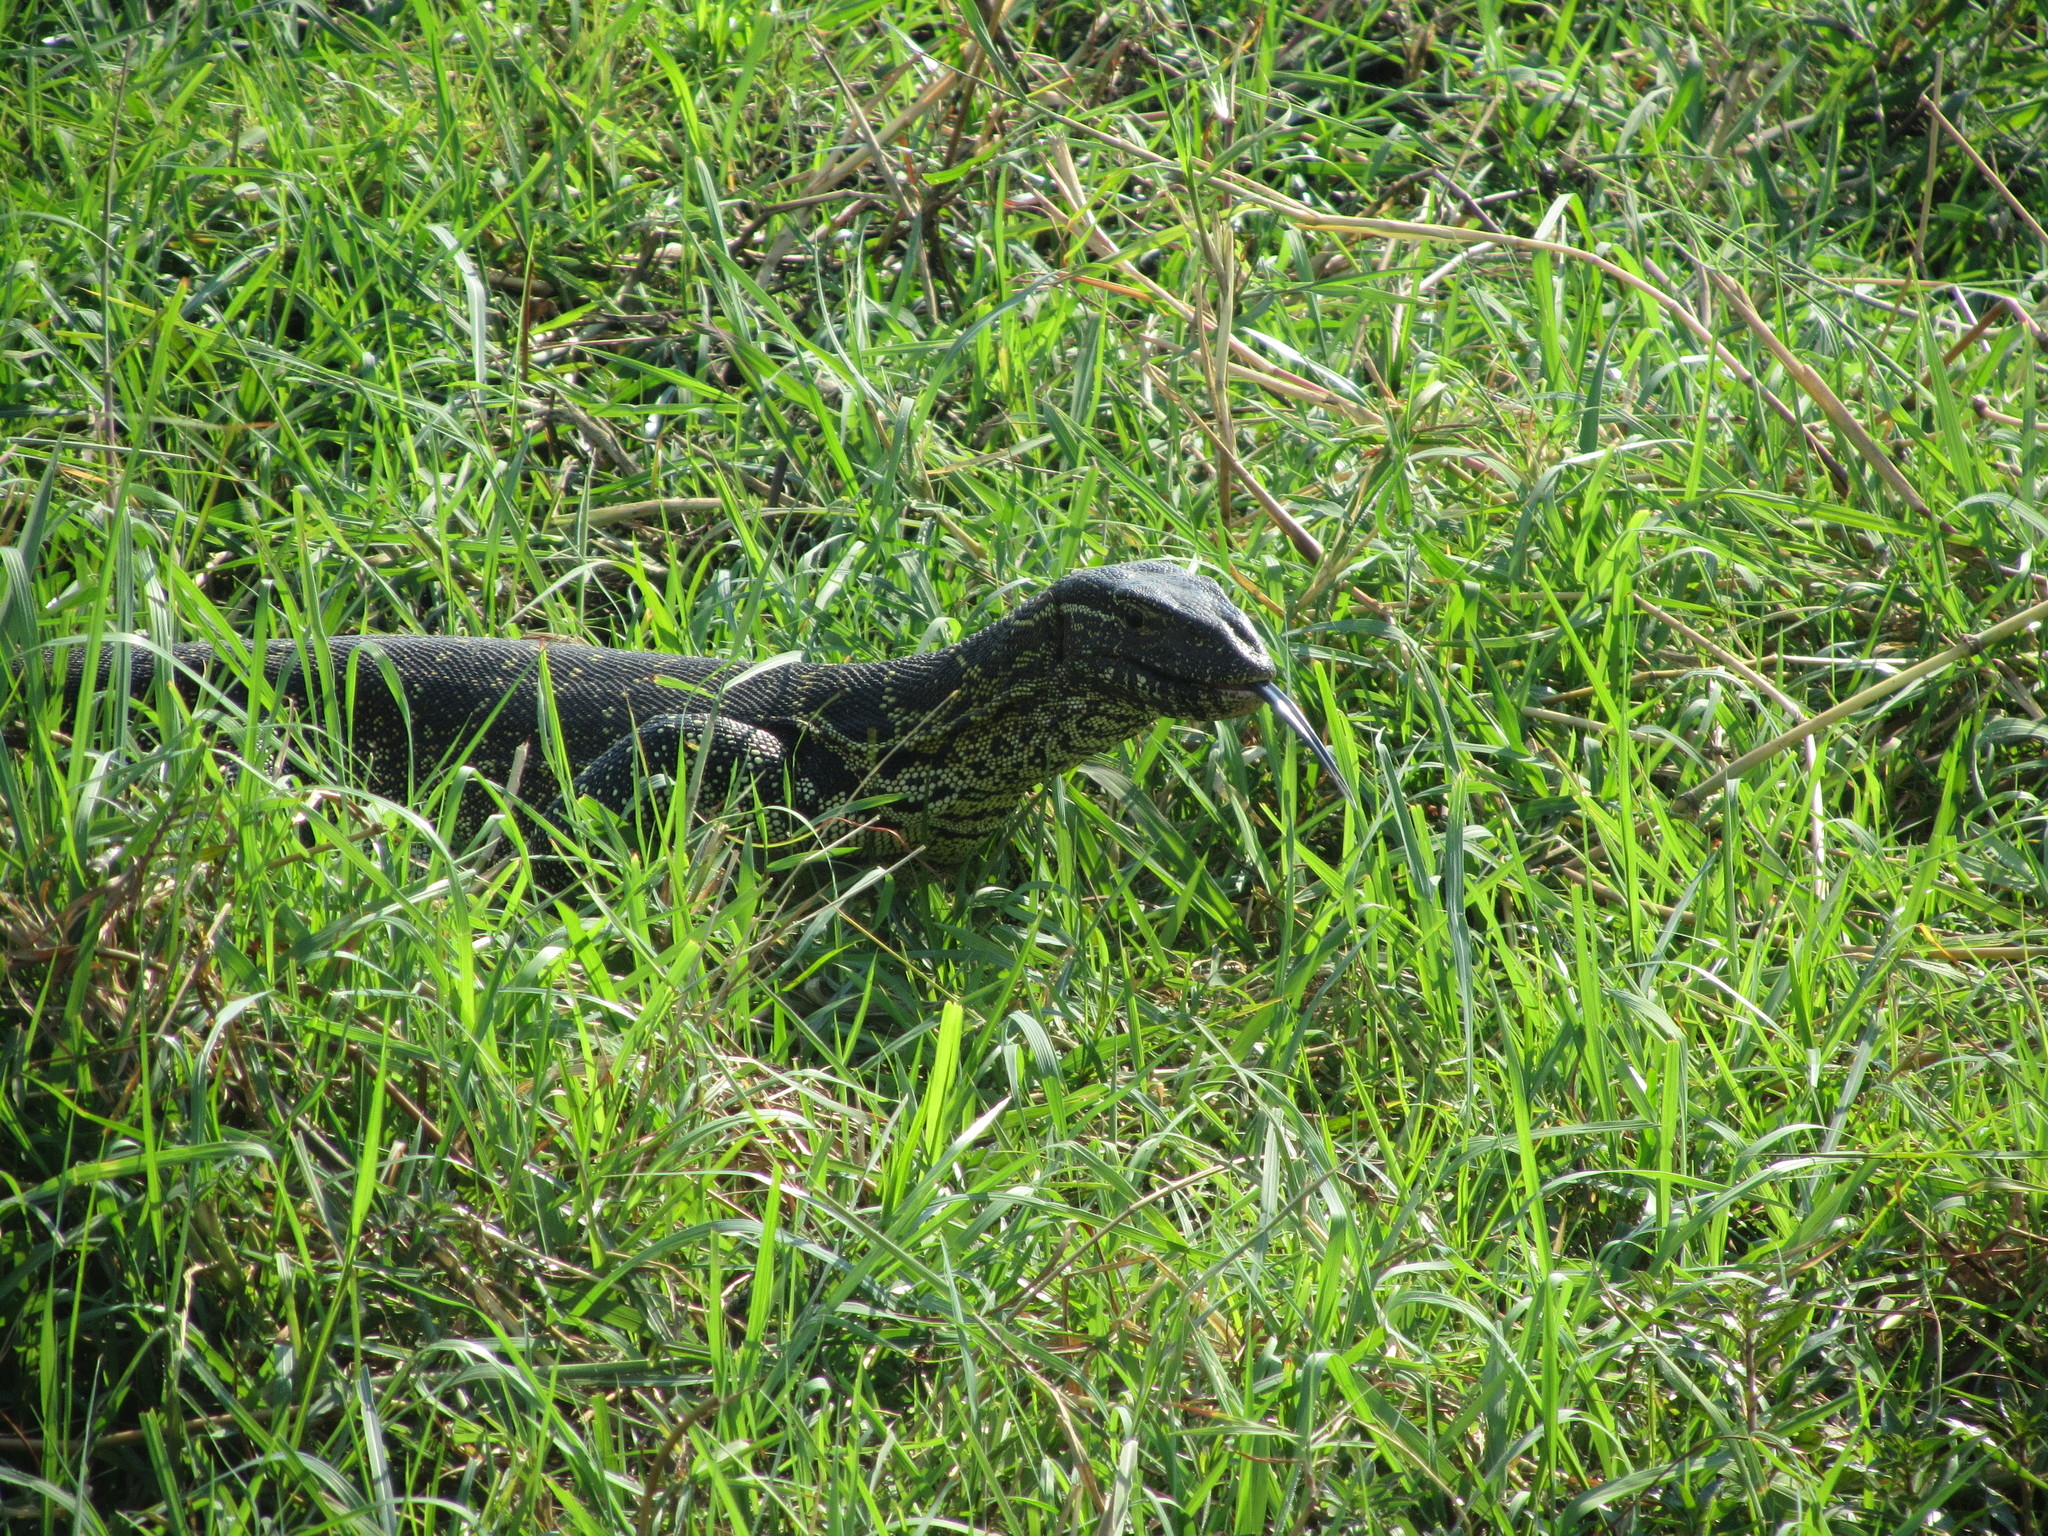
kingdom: Animalia
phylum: Chordata
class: Squamata
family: Varanidae
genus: Varanus
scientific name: Varanus niloticus
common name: Nile monitor
